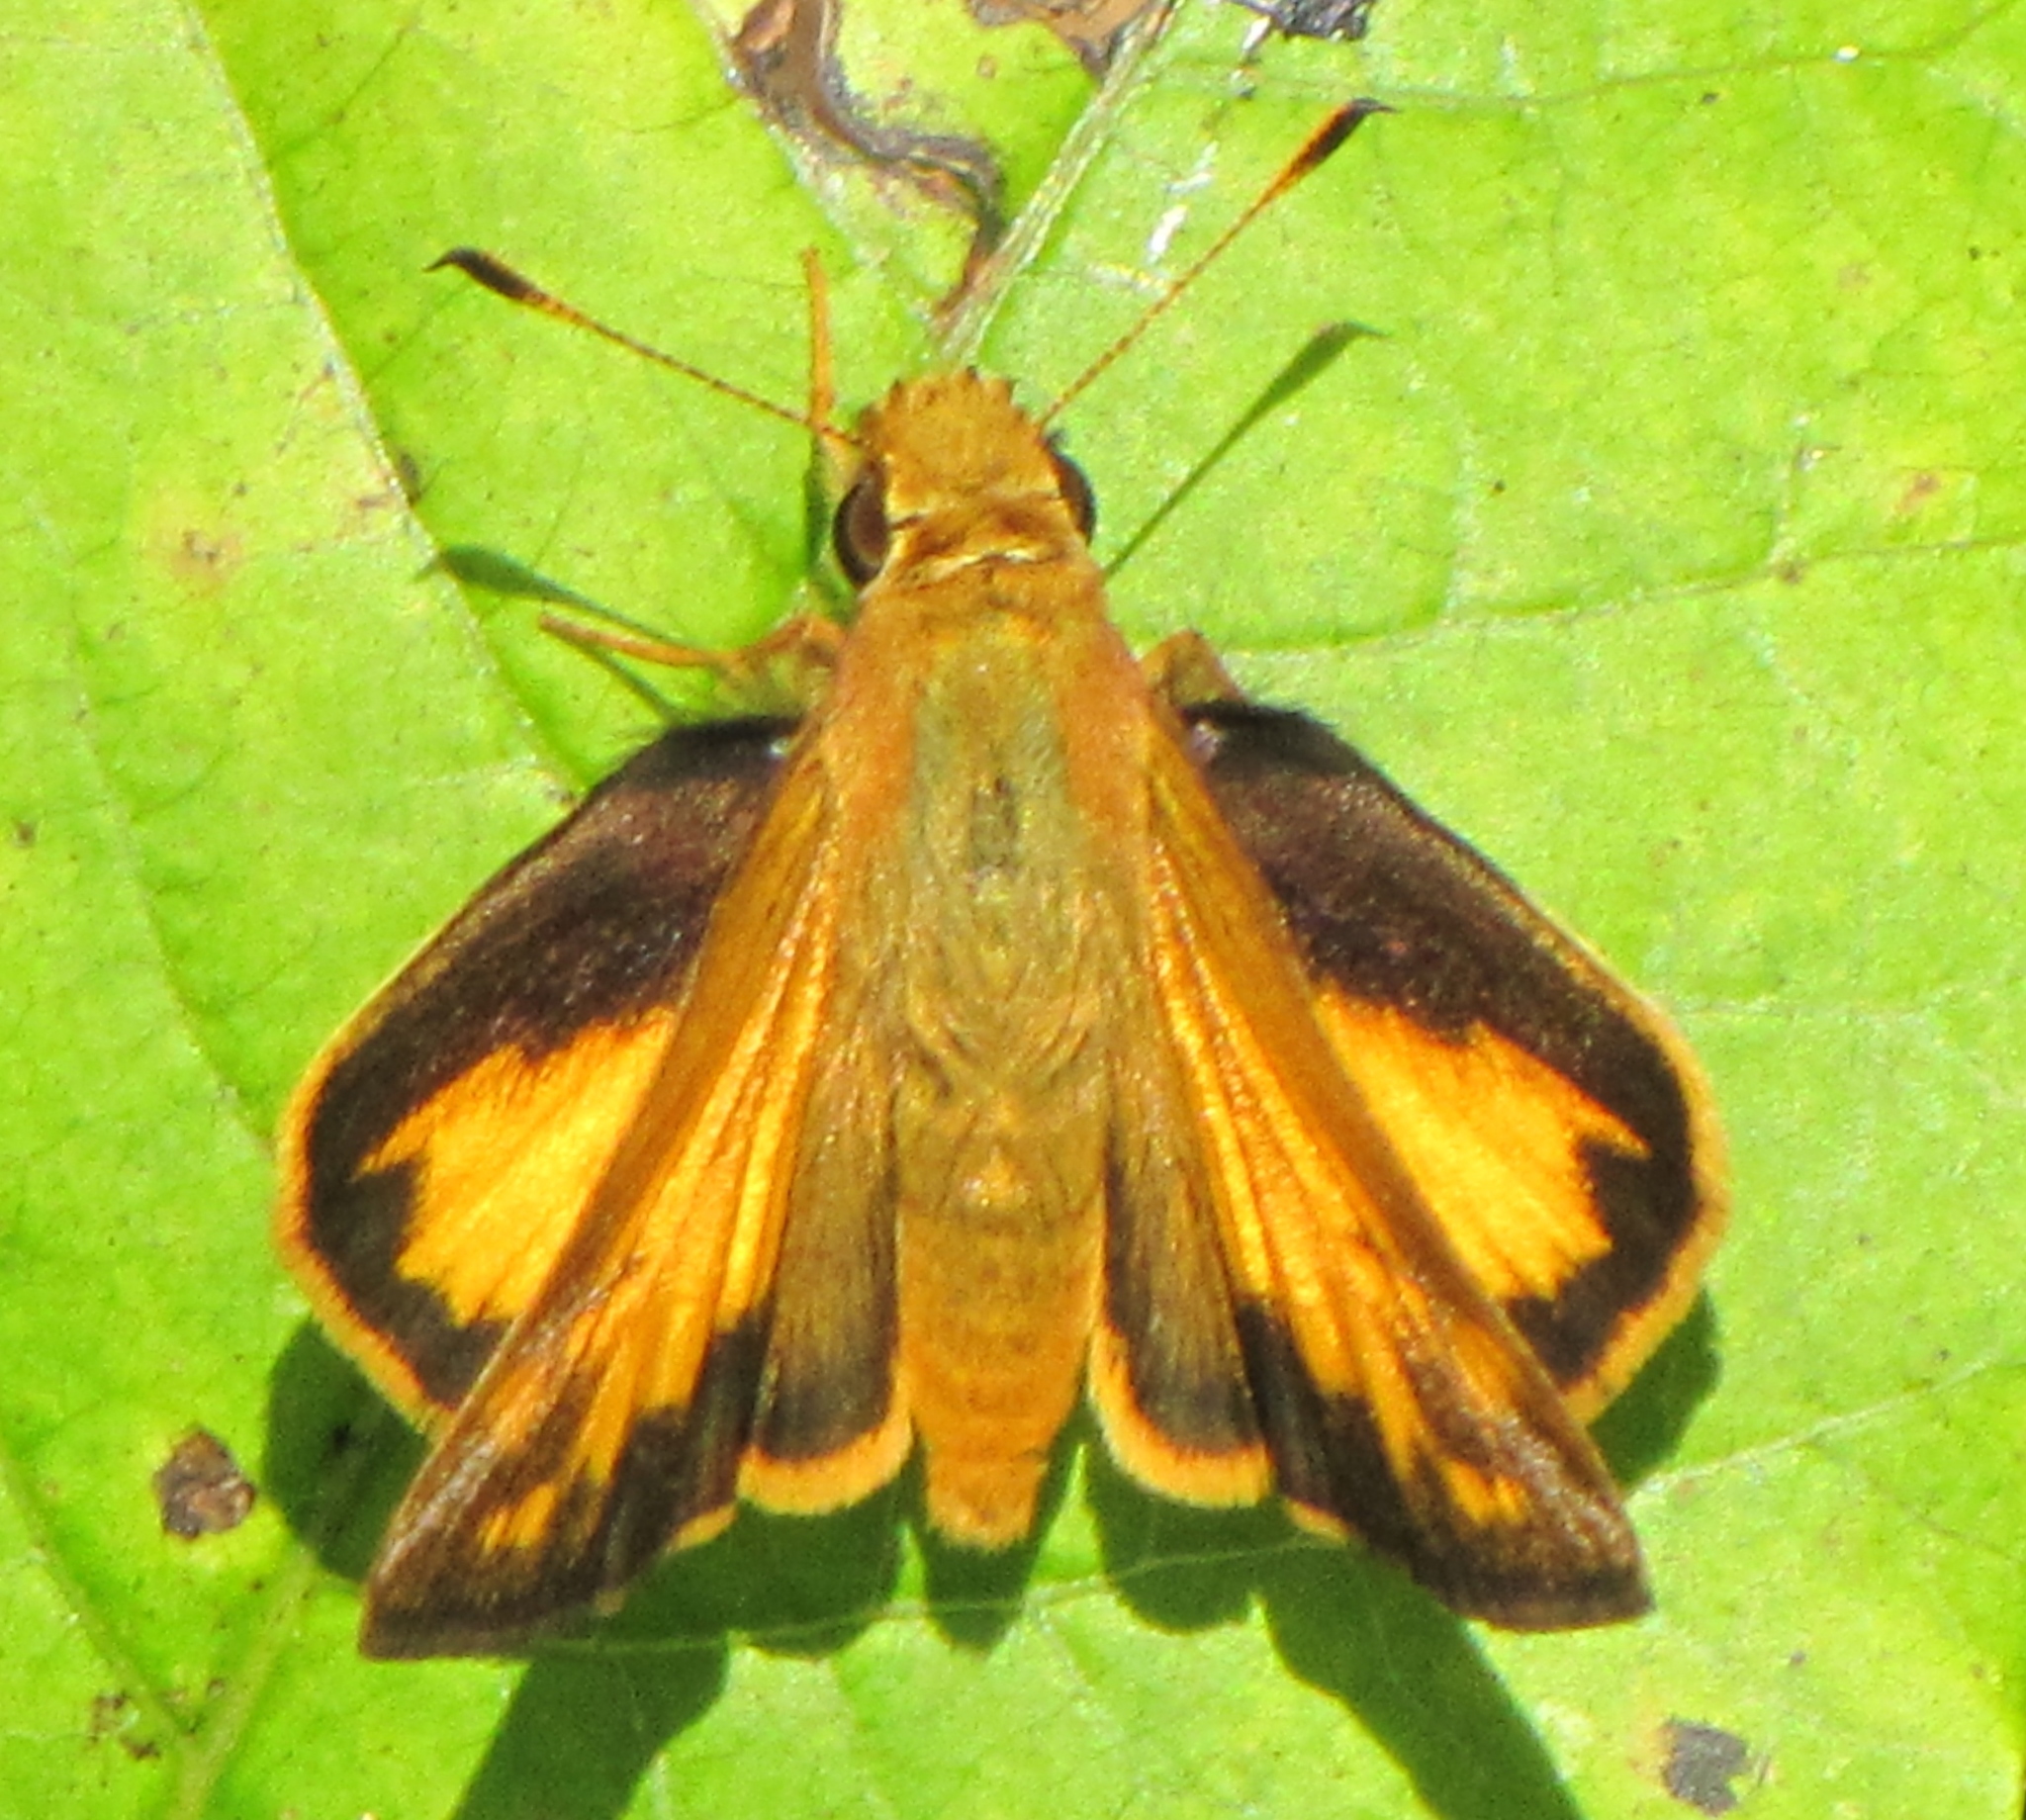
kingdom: Animalia
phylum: Arthropoda
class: Insecta
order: Lepidoptera
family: Hesperiidae
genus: Lon
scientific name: Lon zabulon
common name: Zabulon skipper
